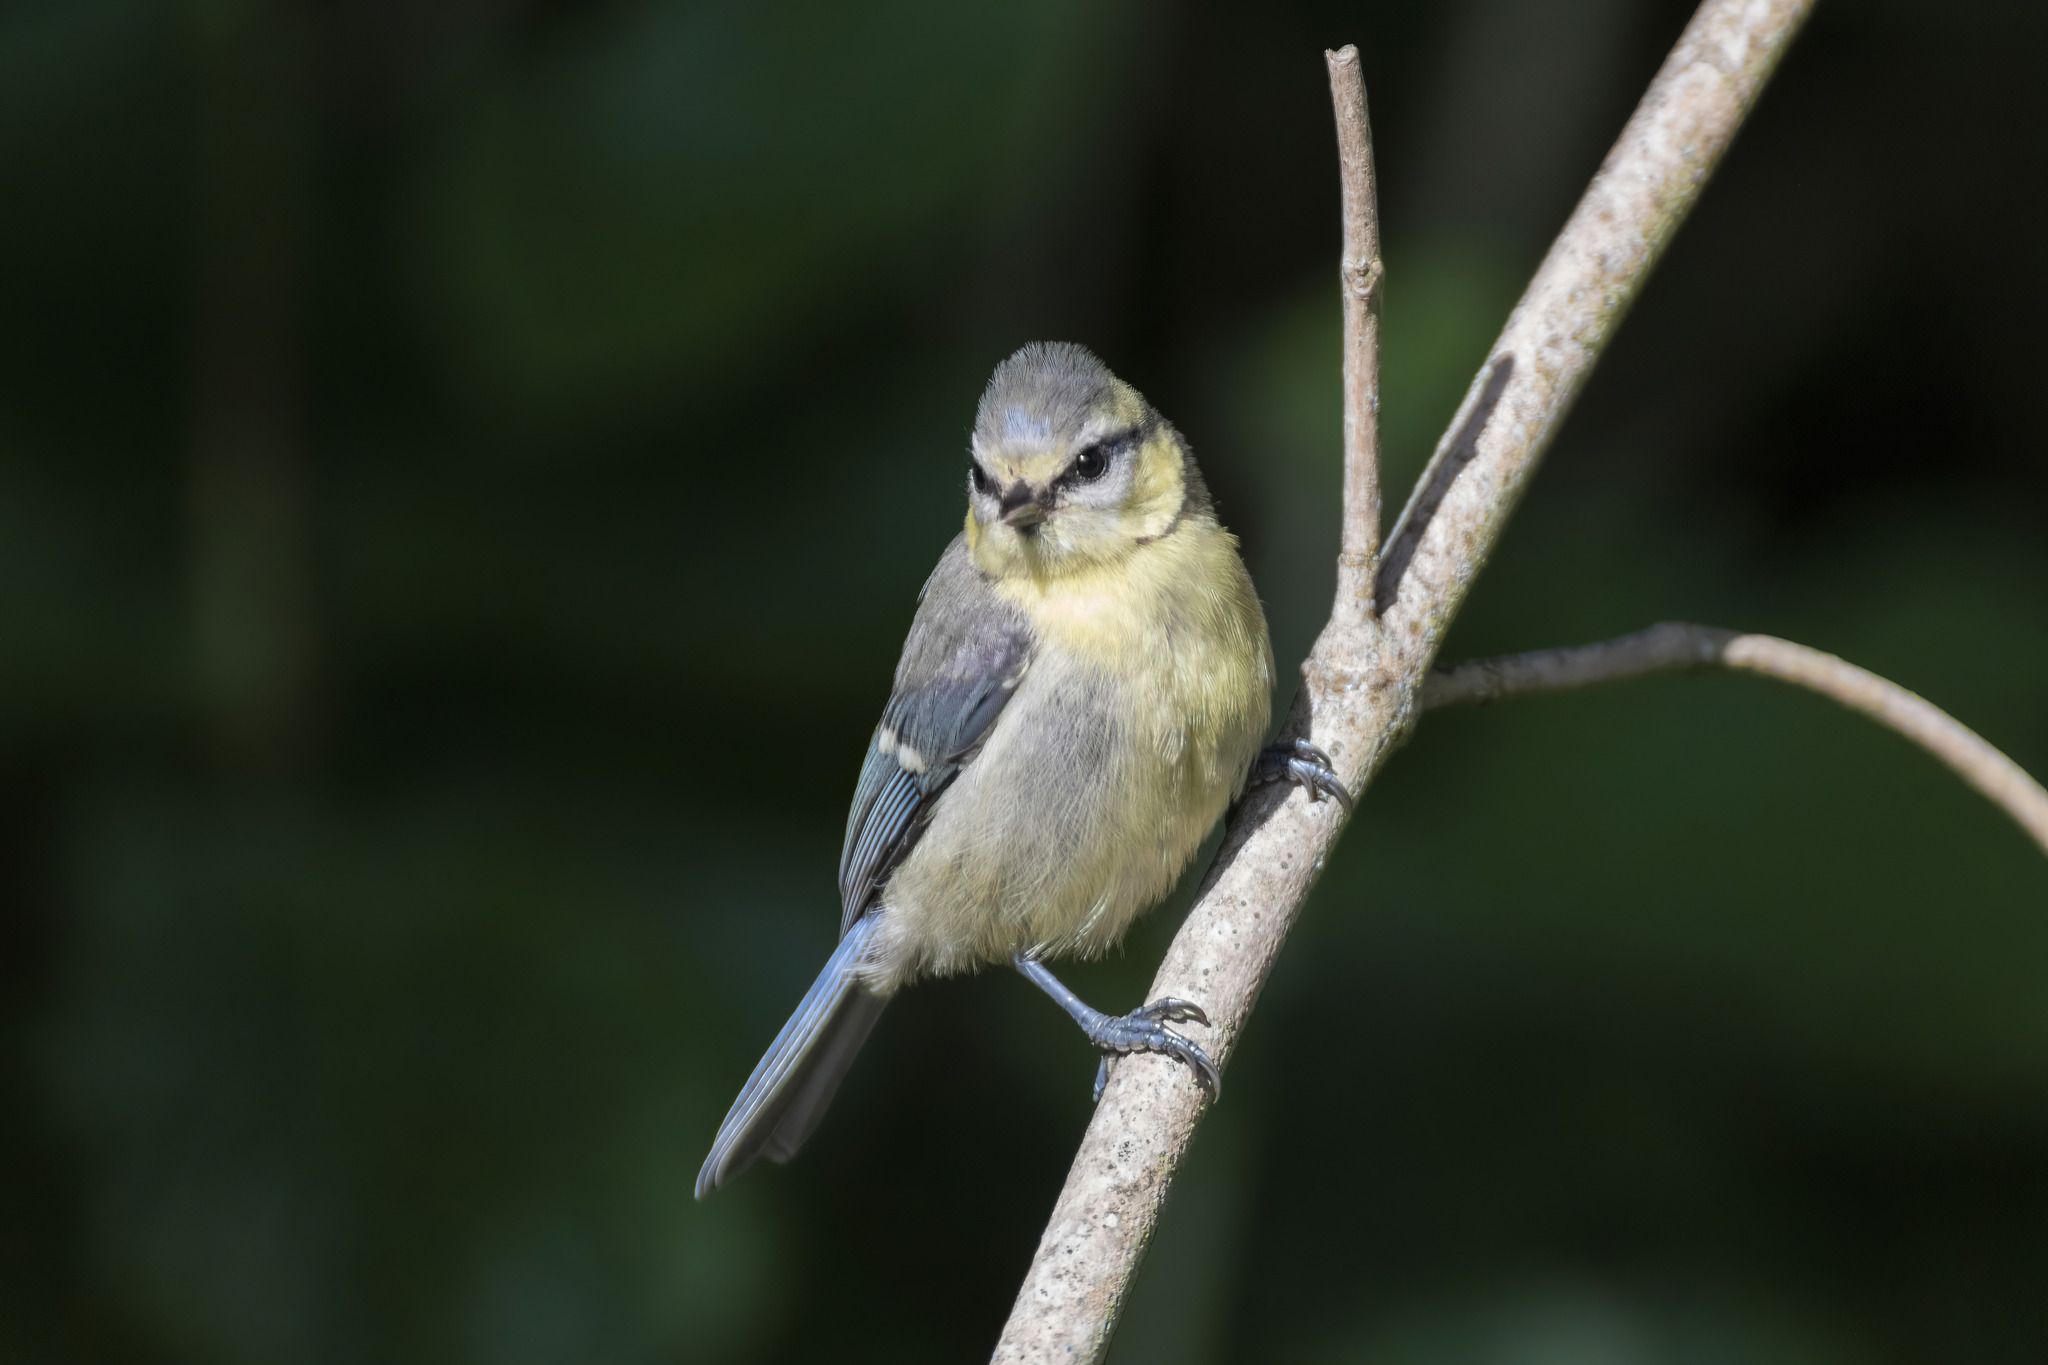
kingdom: Animalia
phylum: Chordata
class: Aves
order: Passeriformes
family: Paridae
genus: Cyanistes
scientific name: Cyanistes caeruleus
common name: Eurasian blue tit
